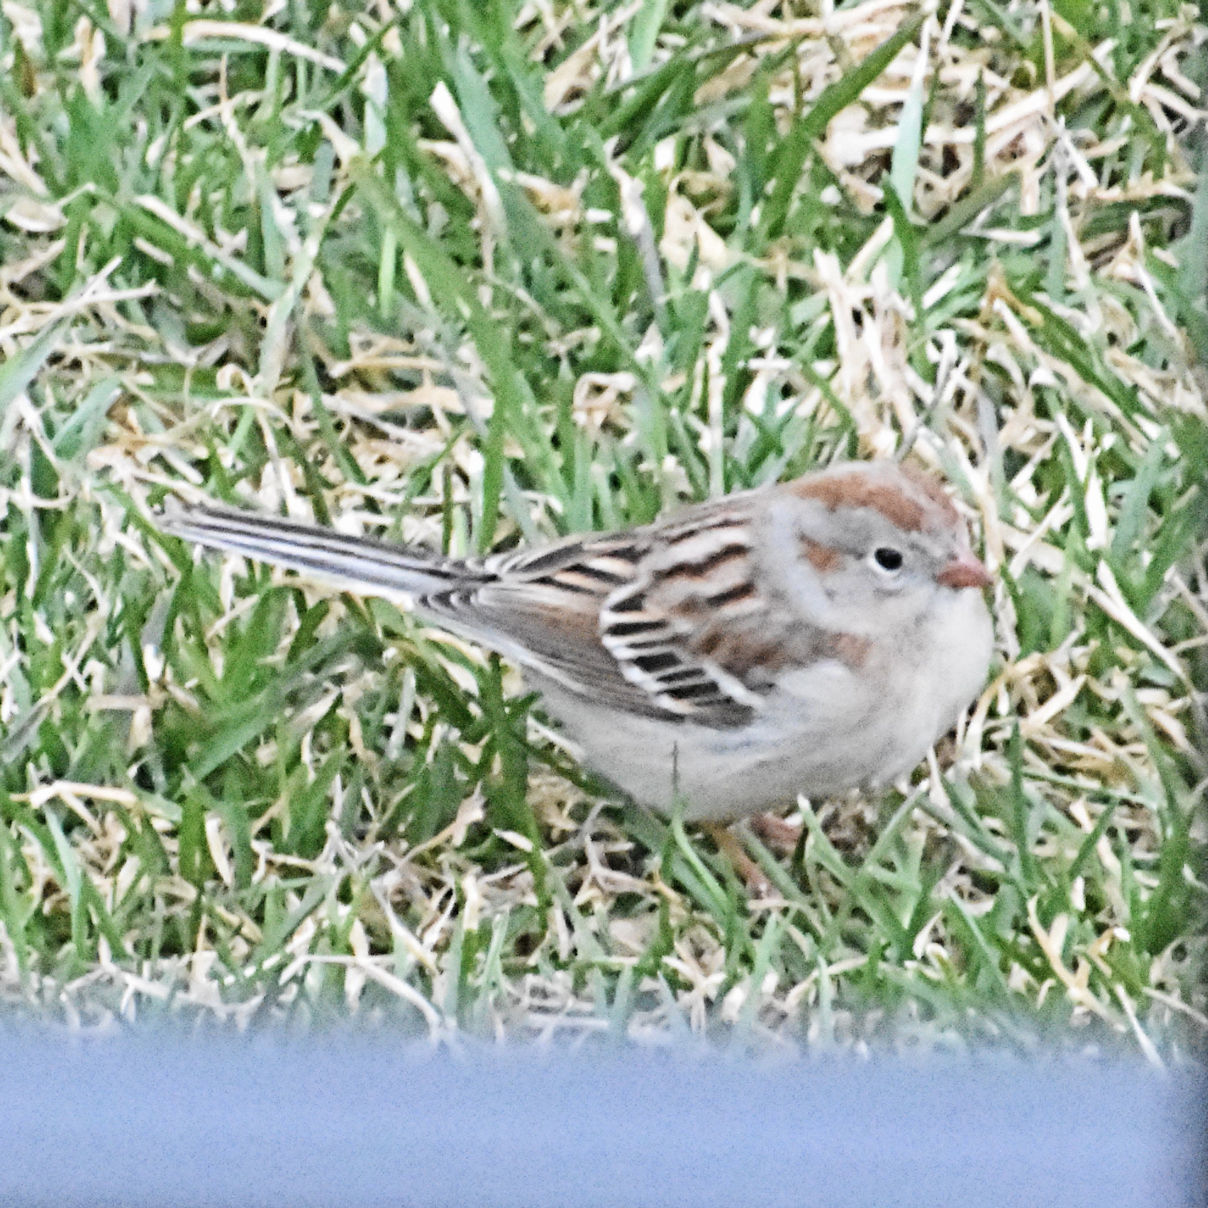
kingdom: Animalia
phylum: Chordata
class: Aves
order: Passeriformes
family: Passerellidae
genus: Spizella
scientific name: Spizella pusilla
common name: Field sparrow
